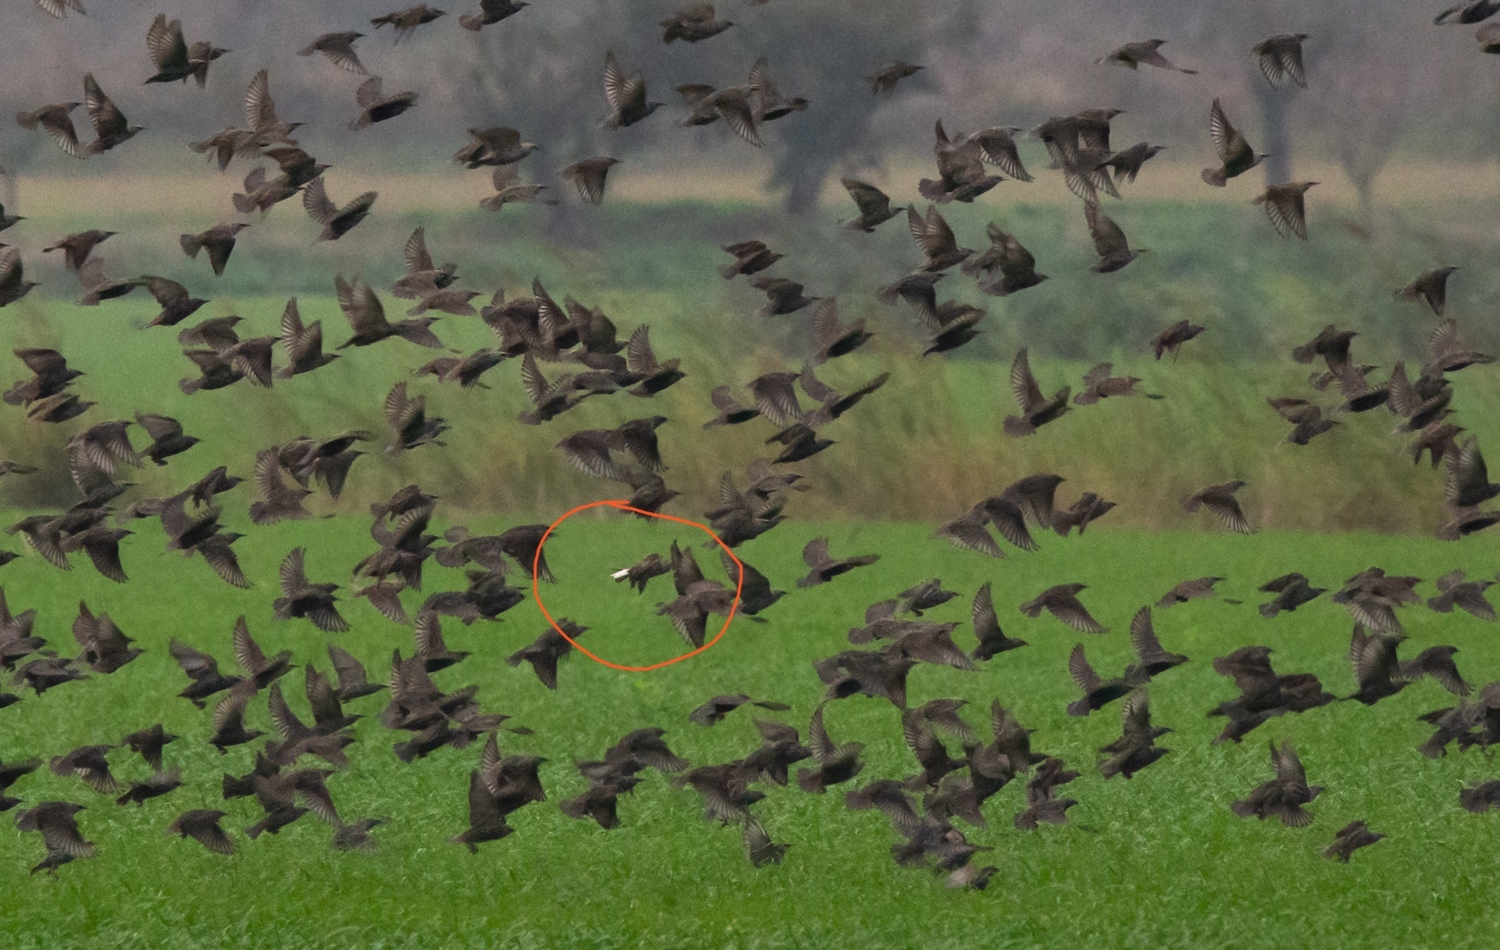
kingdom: Animalia
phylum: Chordata
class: Aves
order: Passeriformes
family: Sturnidae
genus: Sturnus
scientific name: Sturnus vulgaris
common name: Common starling
